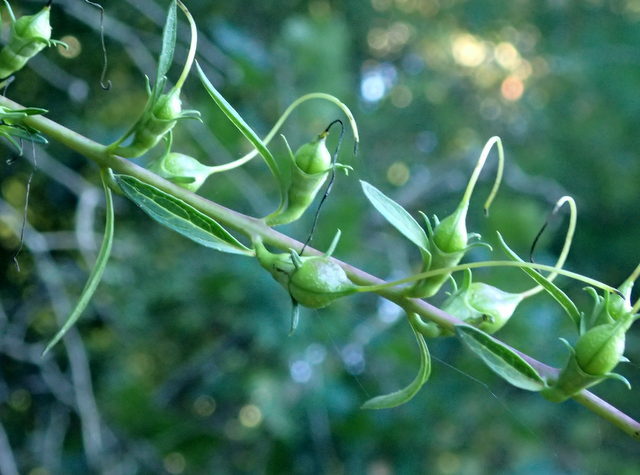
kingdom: Plantae
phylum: Tracheophyta
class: Magnoliopsida
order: Lamiales
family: Orobanchaceae
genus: Aureolaria
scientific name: Aureolaria flava
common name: Smooth false foxglove
